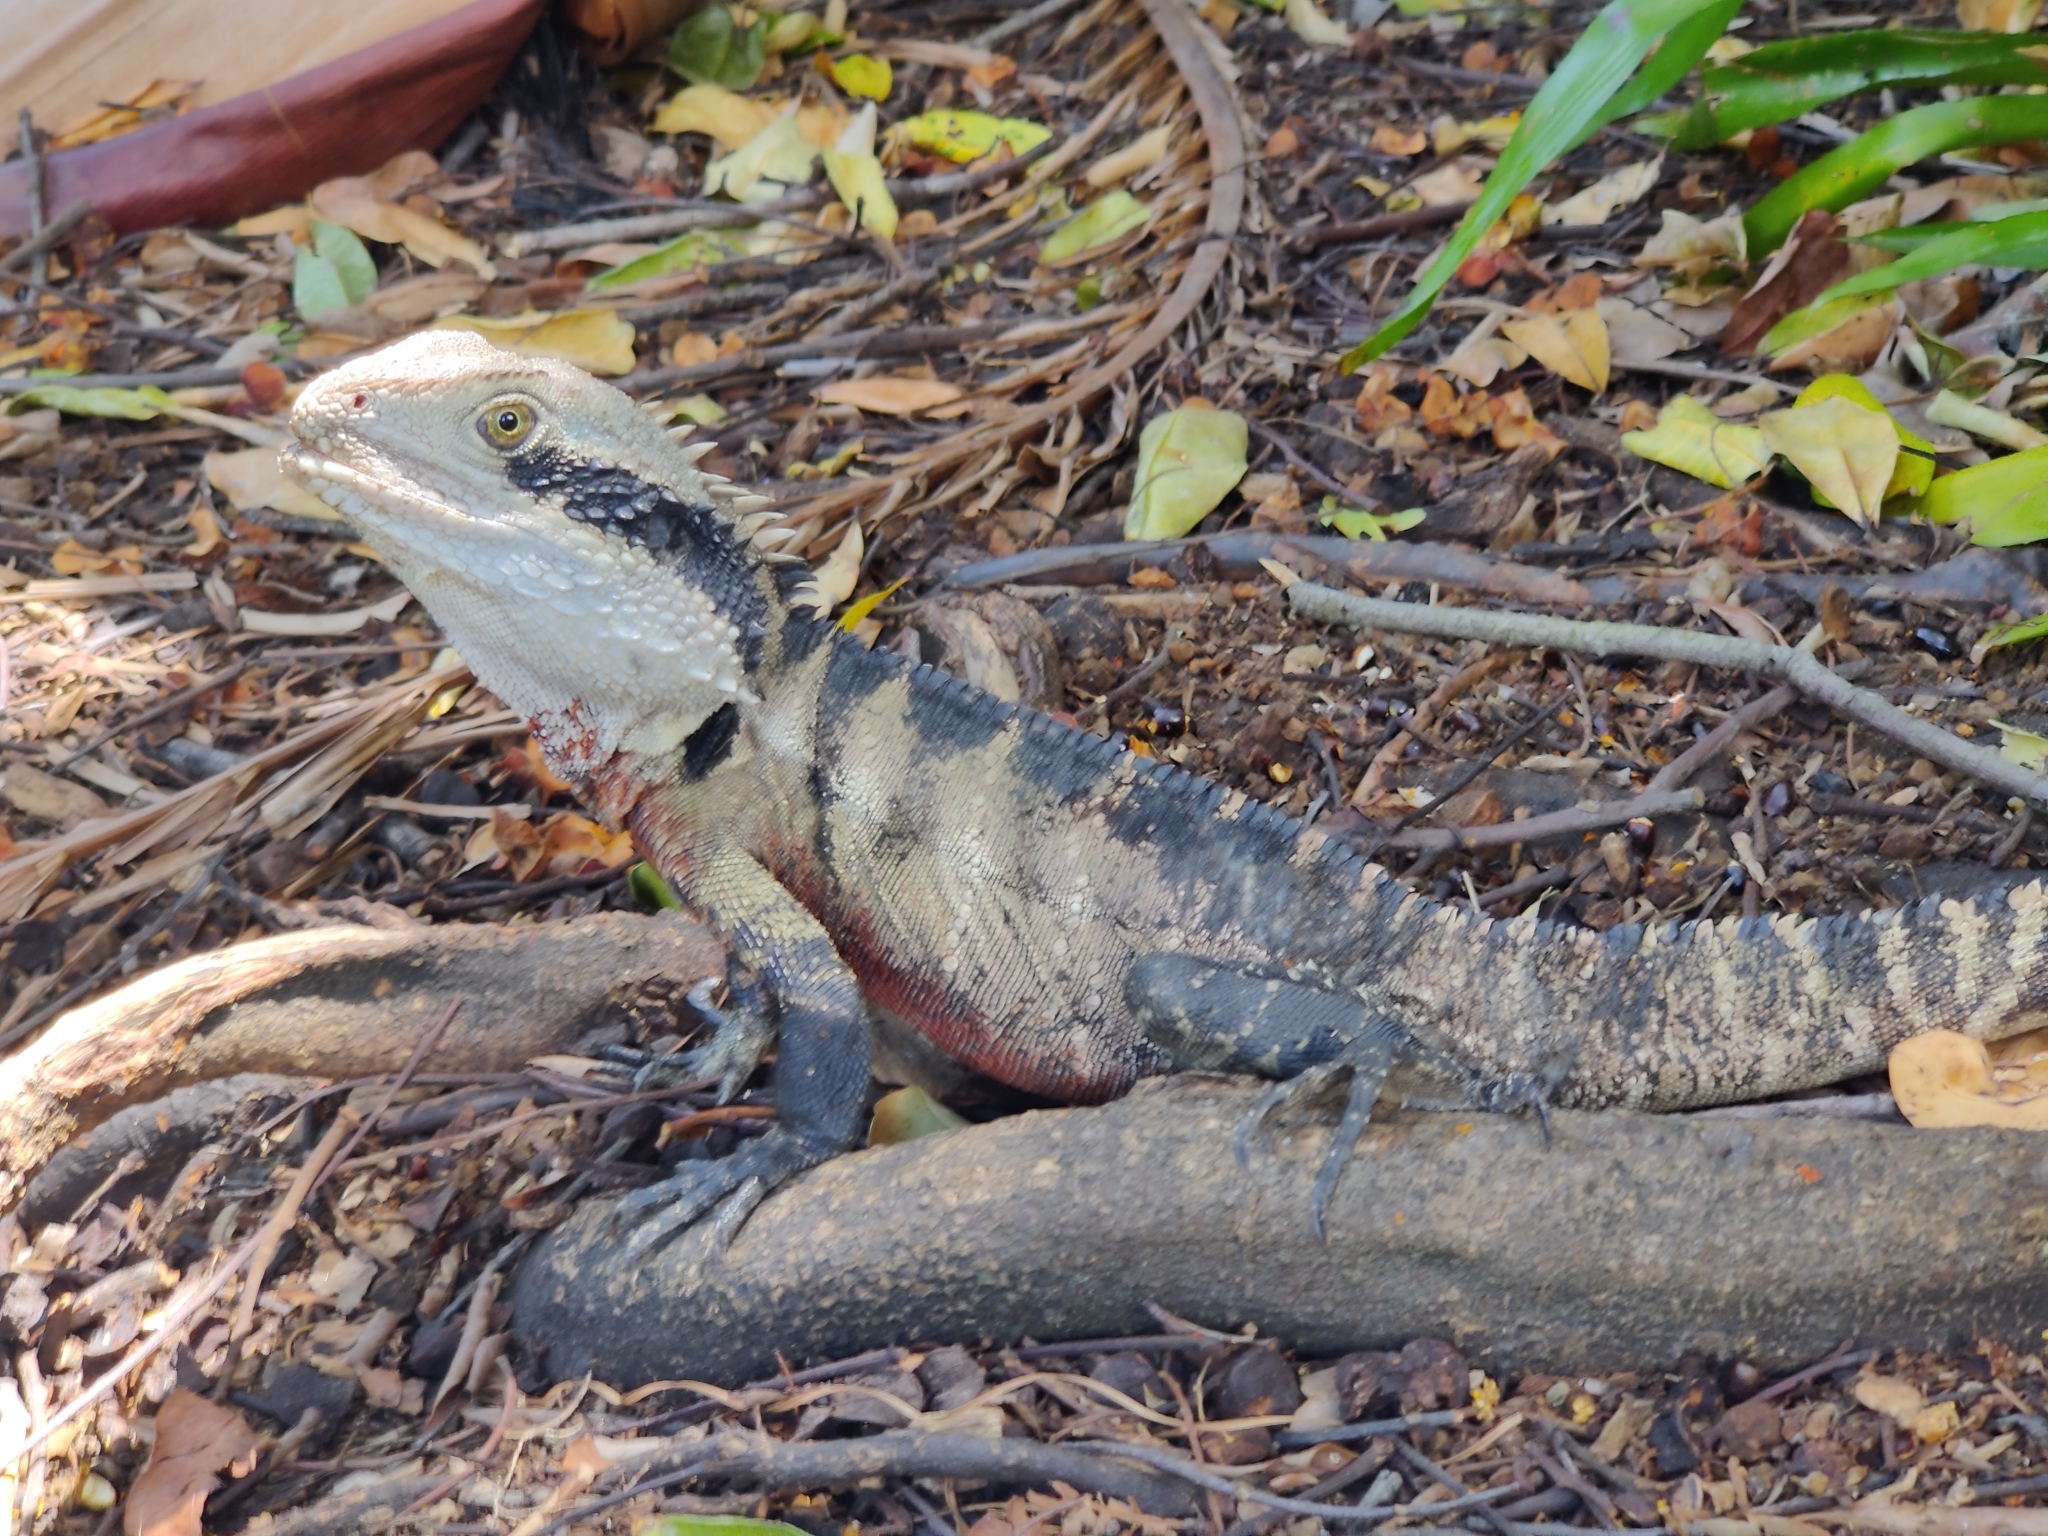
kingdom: Animalia
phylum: Chordata
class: Squamata
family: Agamidae
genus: Intellagama
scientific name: Intellagama lesueurii
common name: Eastern water dragon
